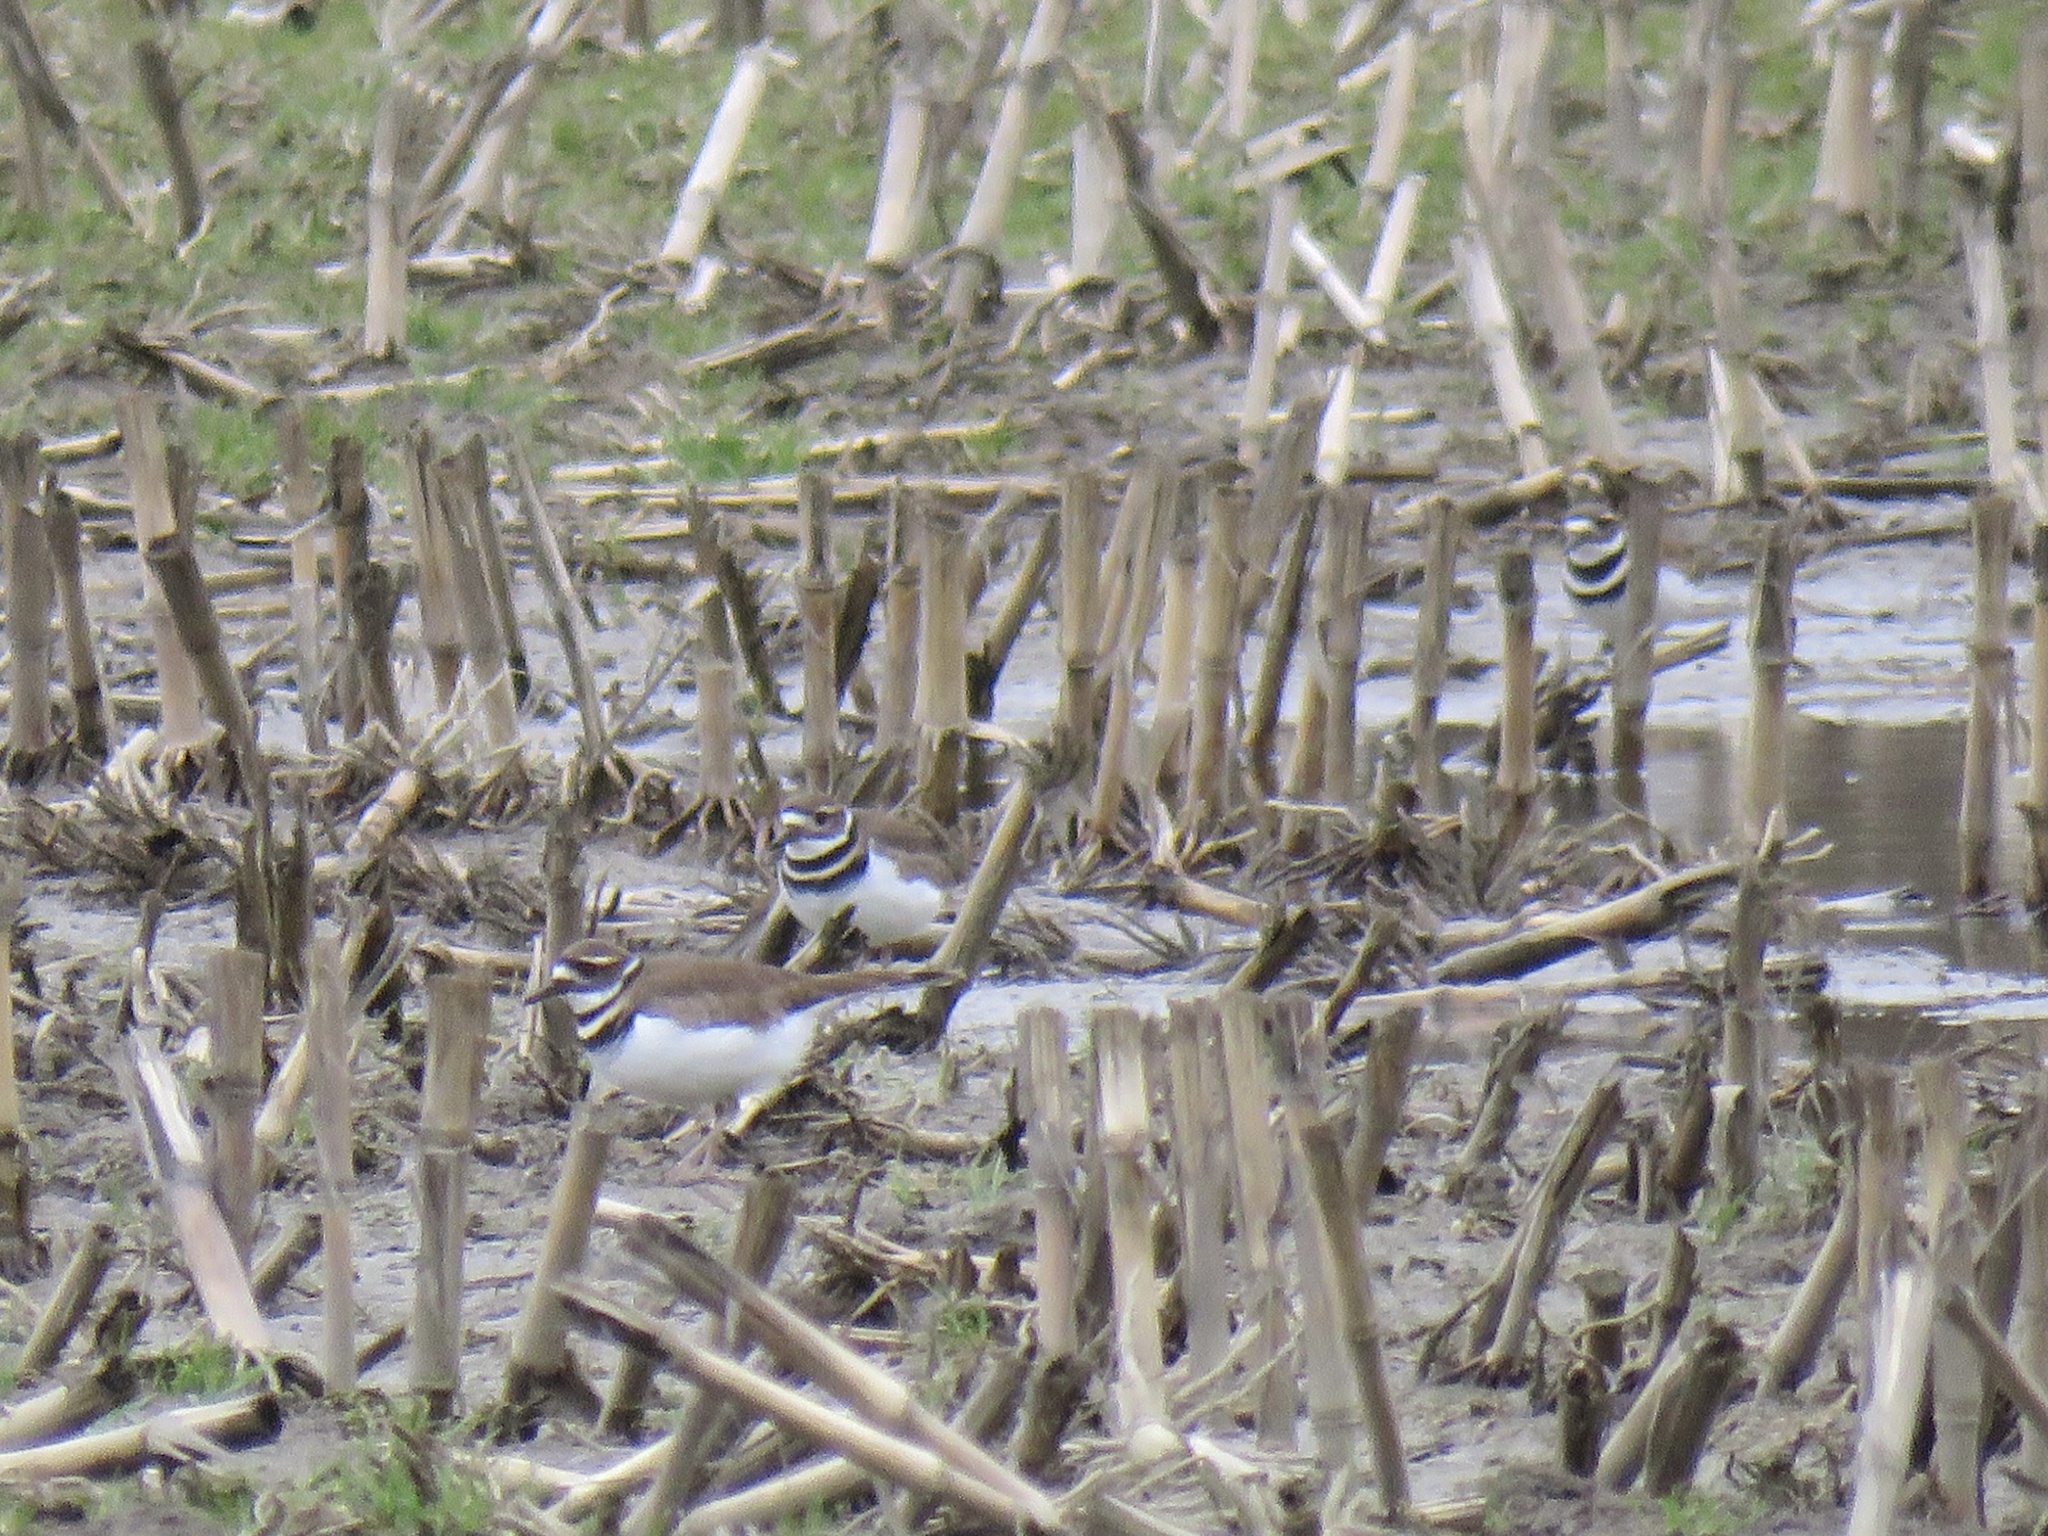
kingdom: Animalia
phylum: Chordata
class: Aves
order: Charadriiformes
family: Charadriidae
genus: Charadrius
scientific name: Charadrius vociferus
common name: Killdeer
